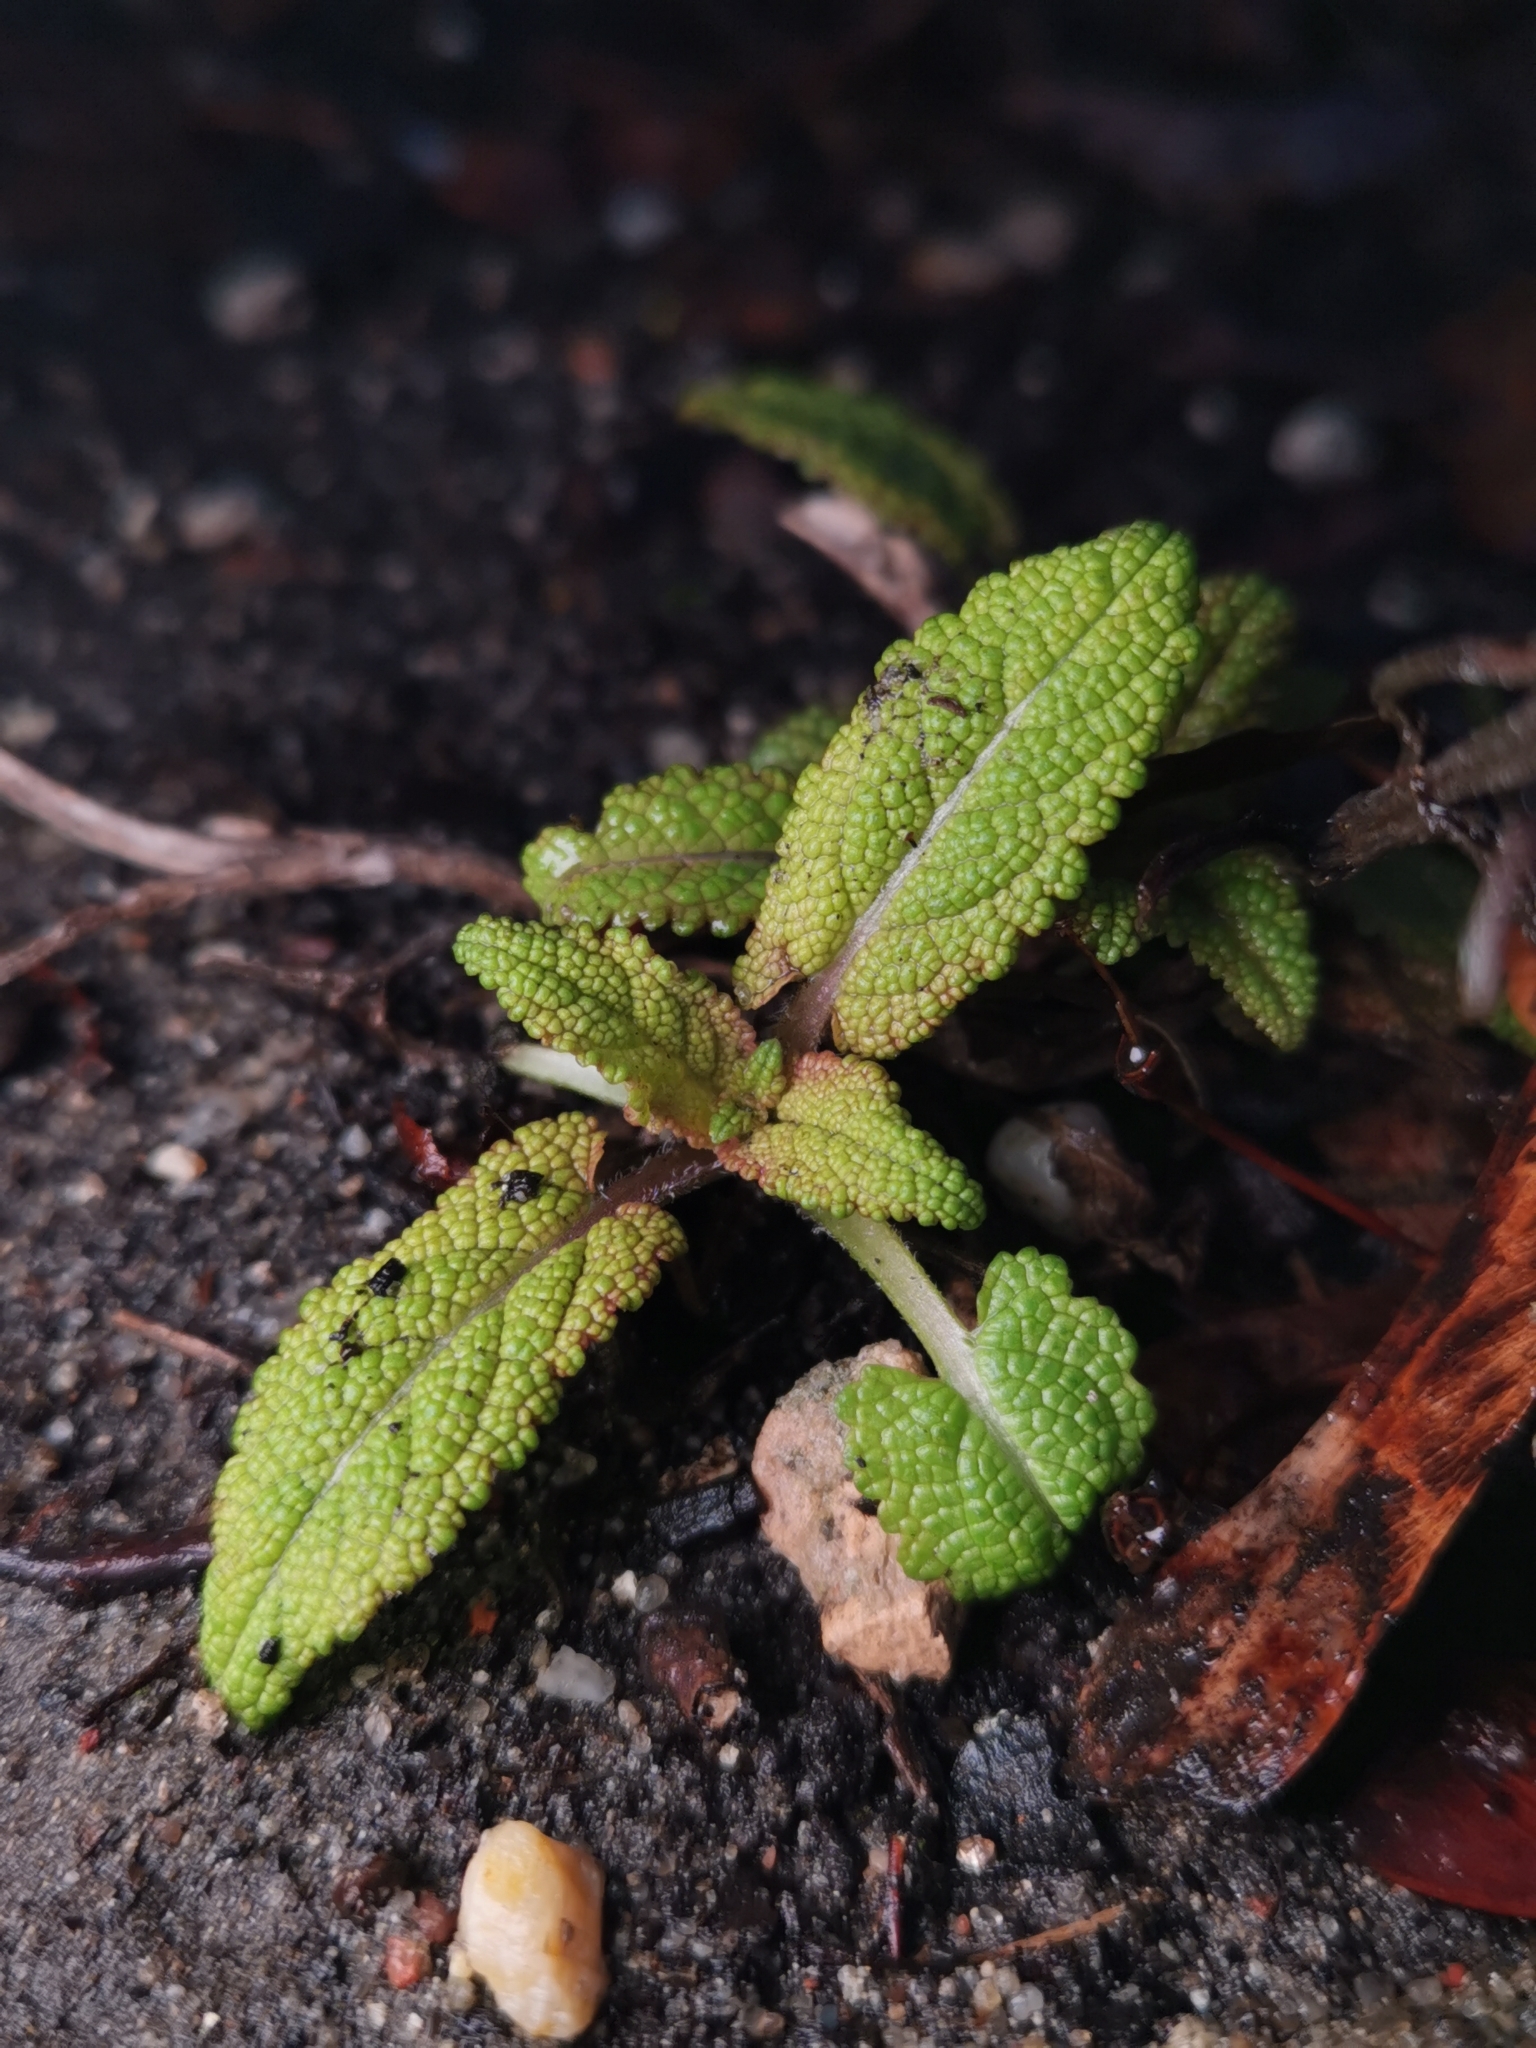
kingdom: Plantae
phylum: Tracheophyta
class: Magnoliopsida
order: Lamiales
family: Lamiaceae
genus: Salvia
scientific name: Salvia officinalis
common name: Sage
